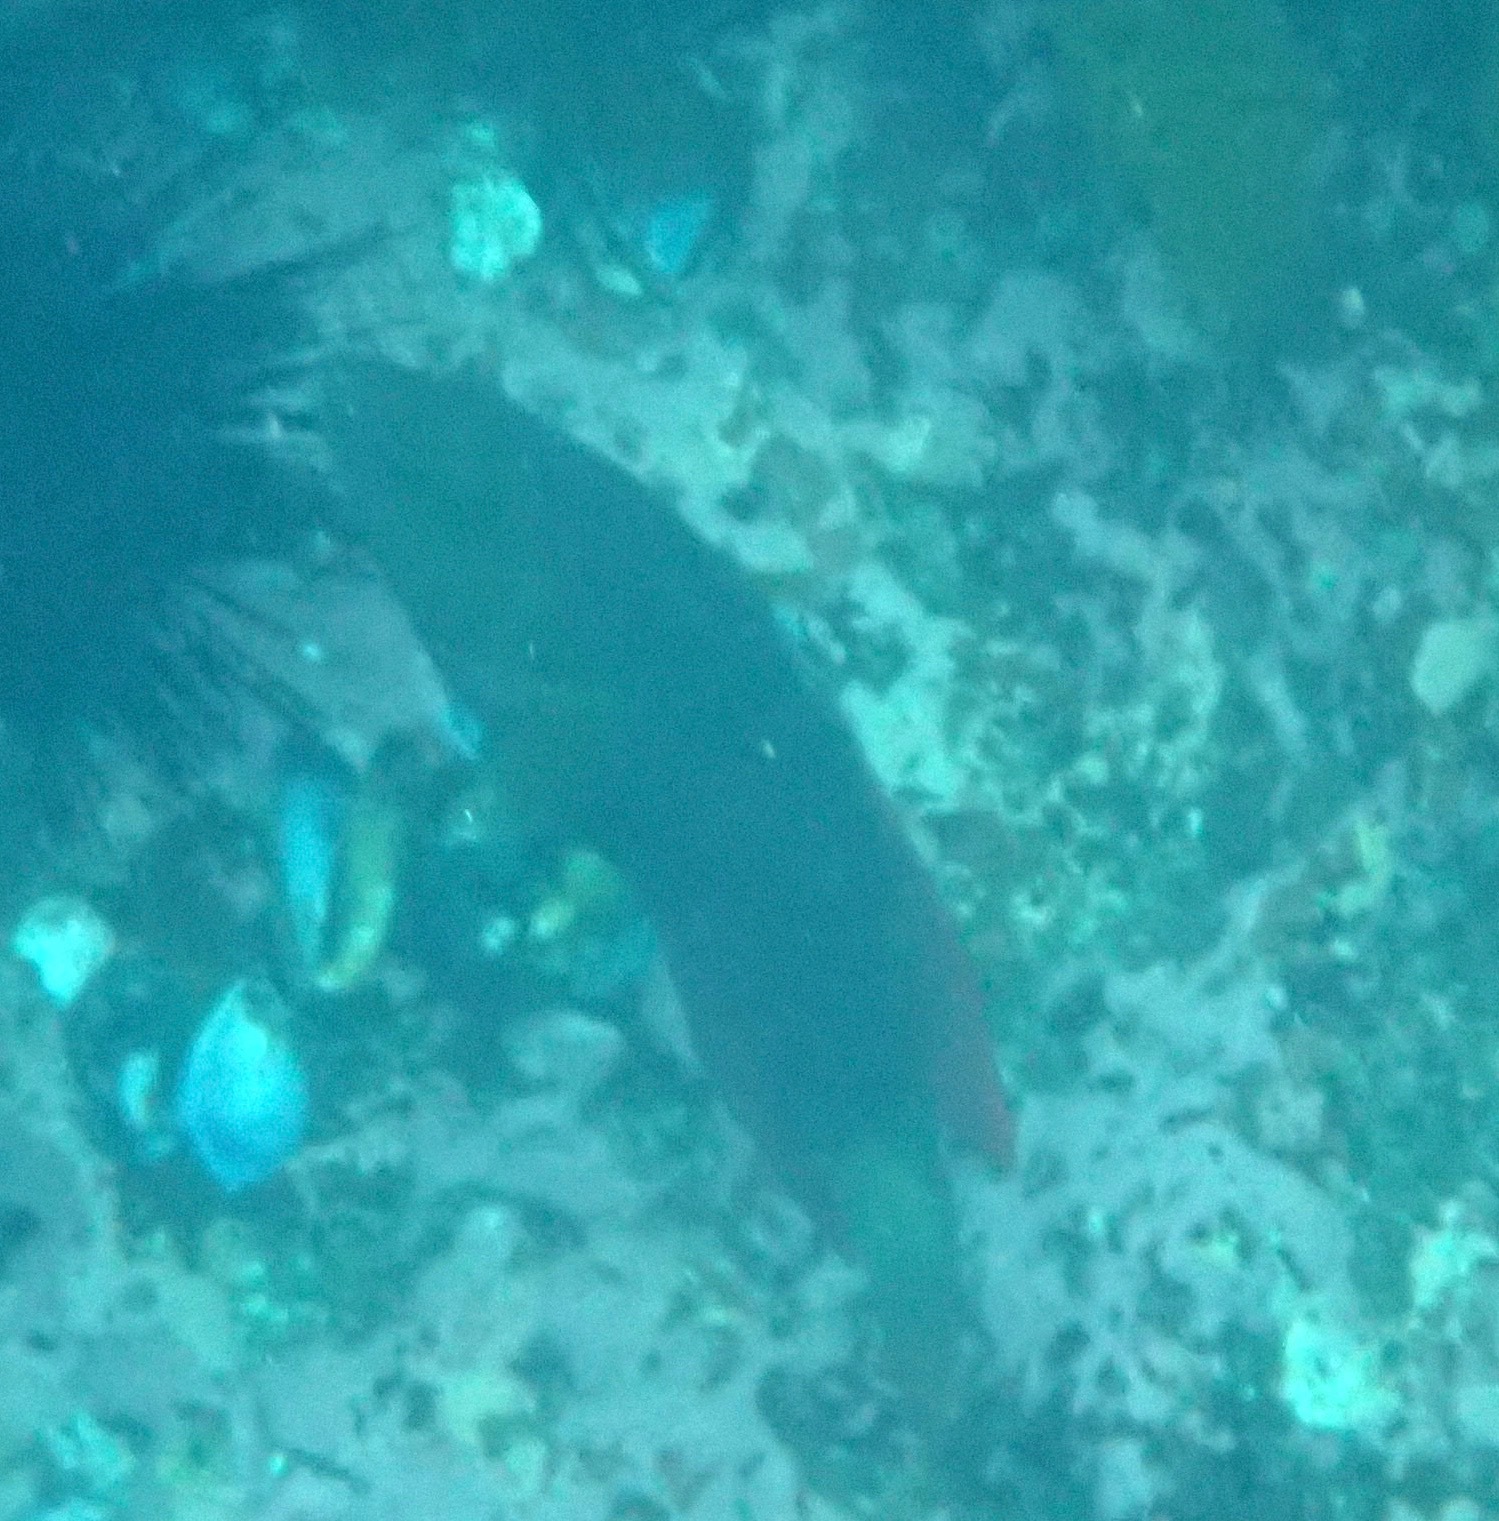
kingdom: Animalia
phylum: Chordata
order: Perciformes
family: Labridae
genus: Notolabrus
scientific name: Notolabrus gymnogenis
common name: Crimson banded wrasse
